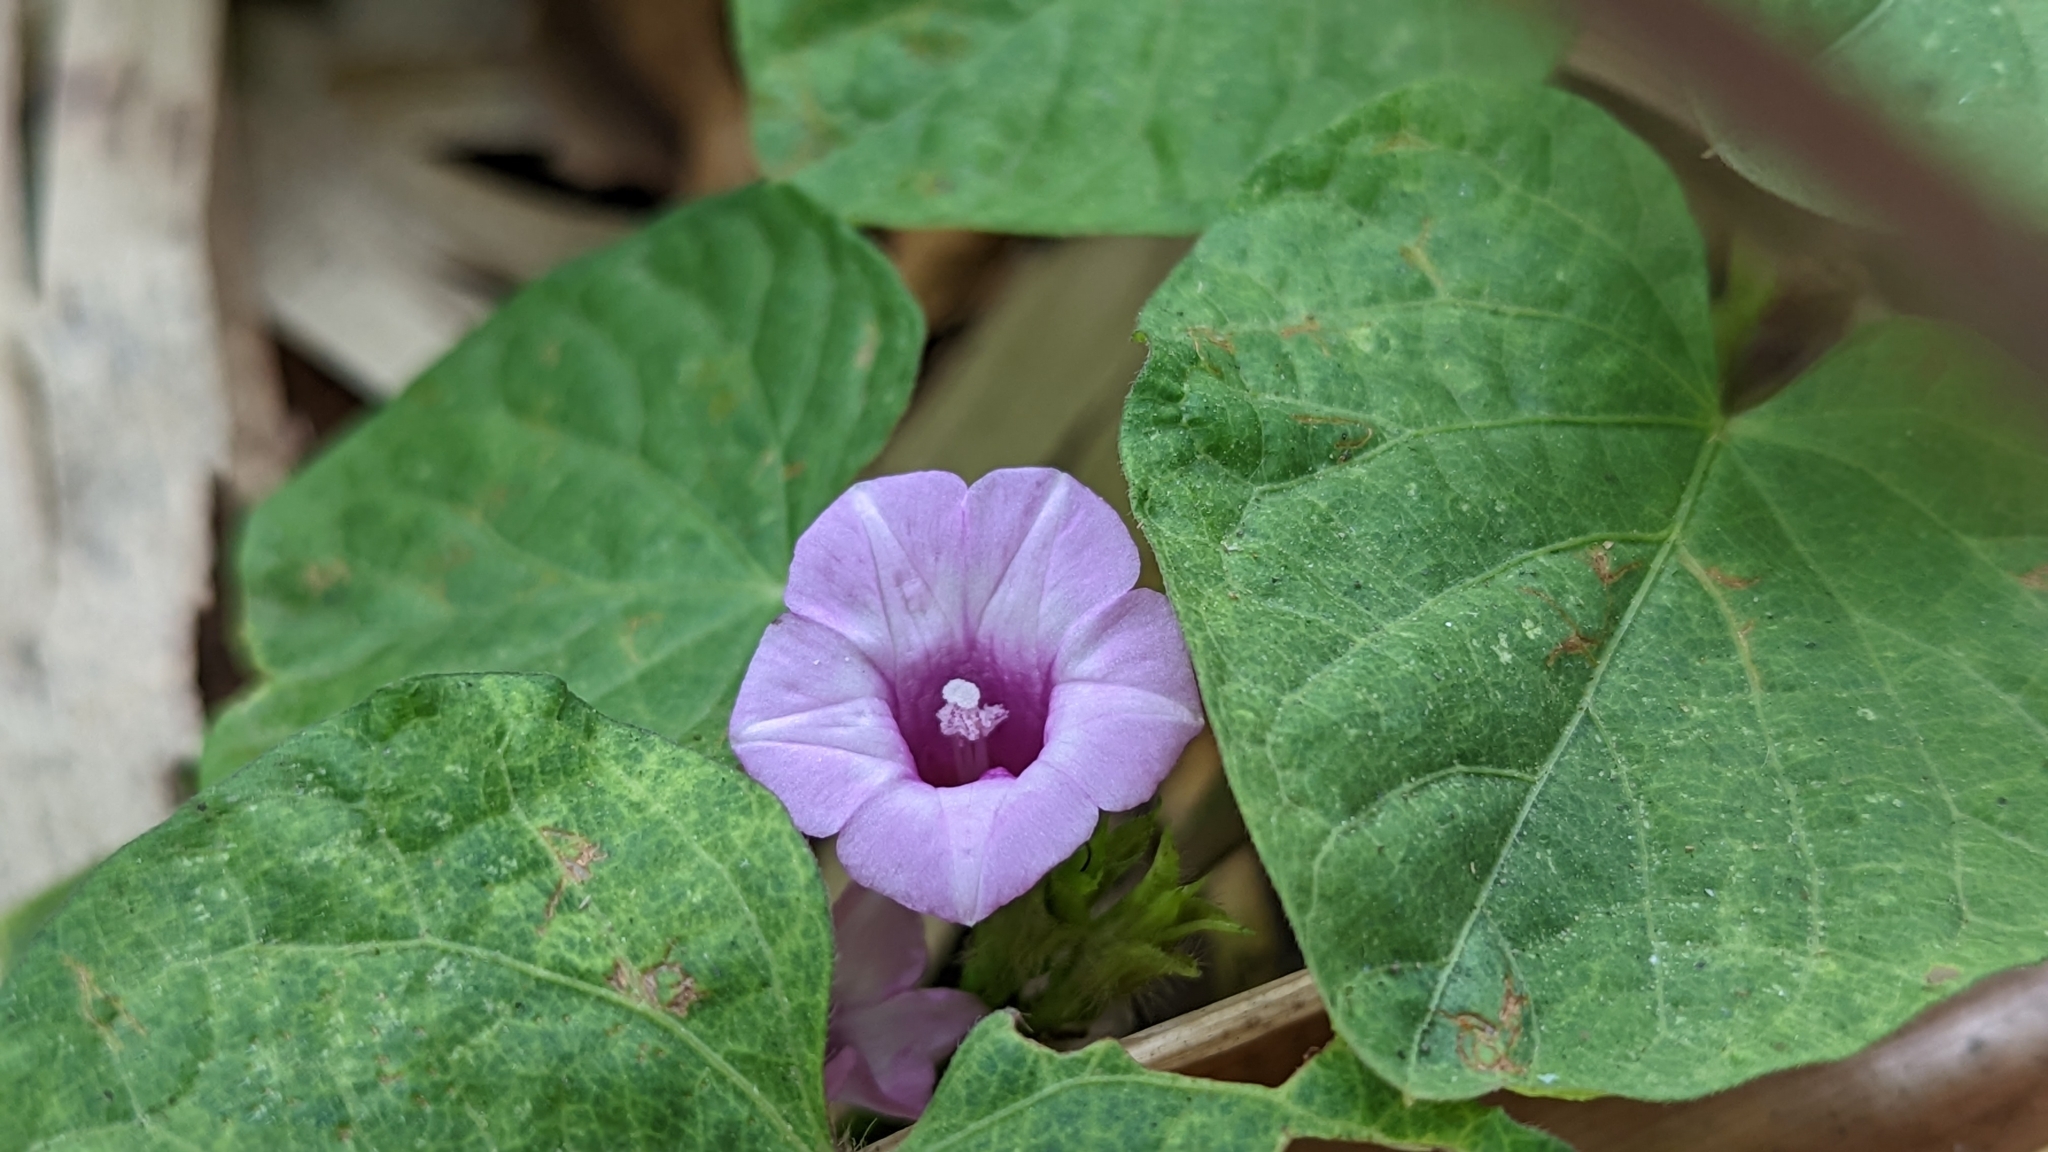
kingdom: Plantae
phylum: Tracheophyta
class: Magnoliopsida
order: Solanales
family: Convolvulaceae
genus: Ipomoea
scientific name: Ipomoea triloba
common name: Little-bell
